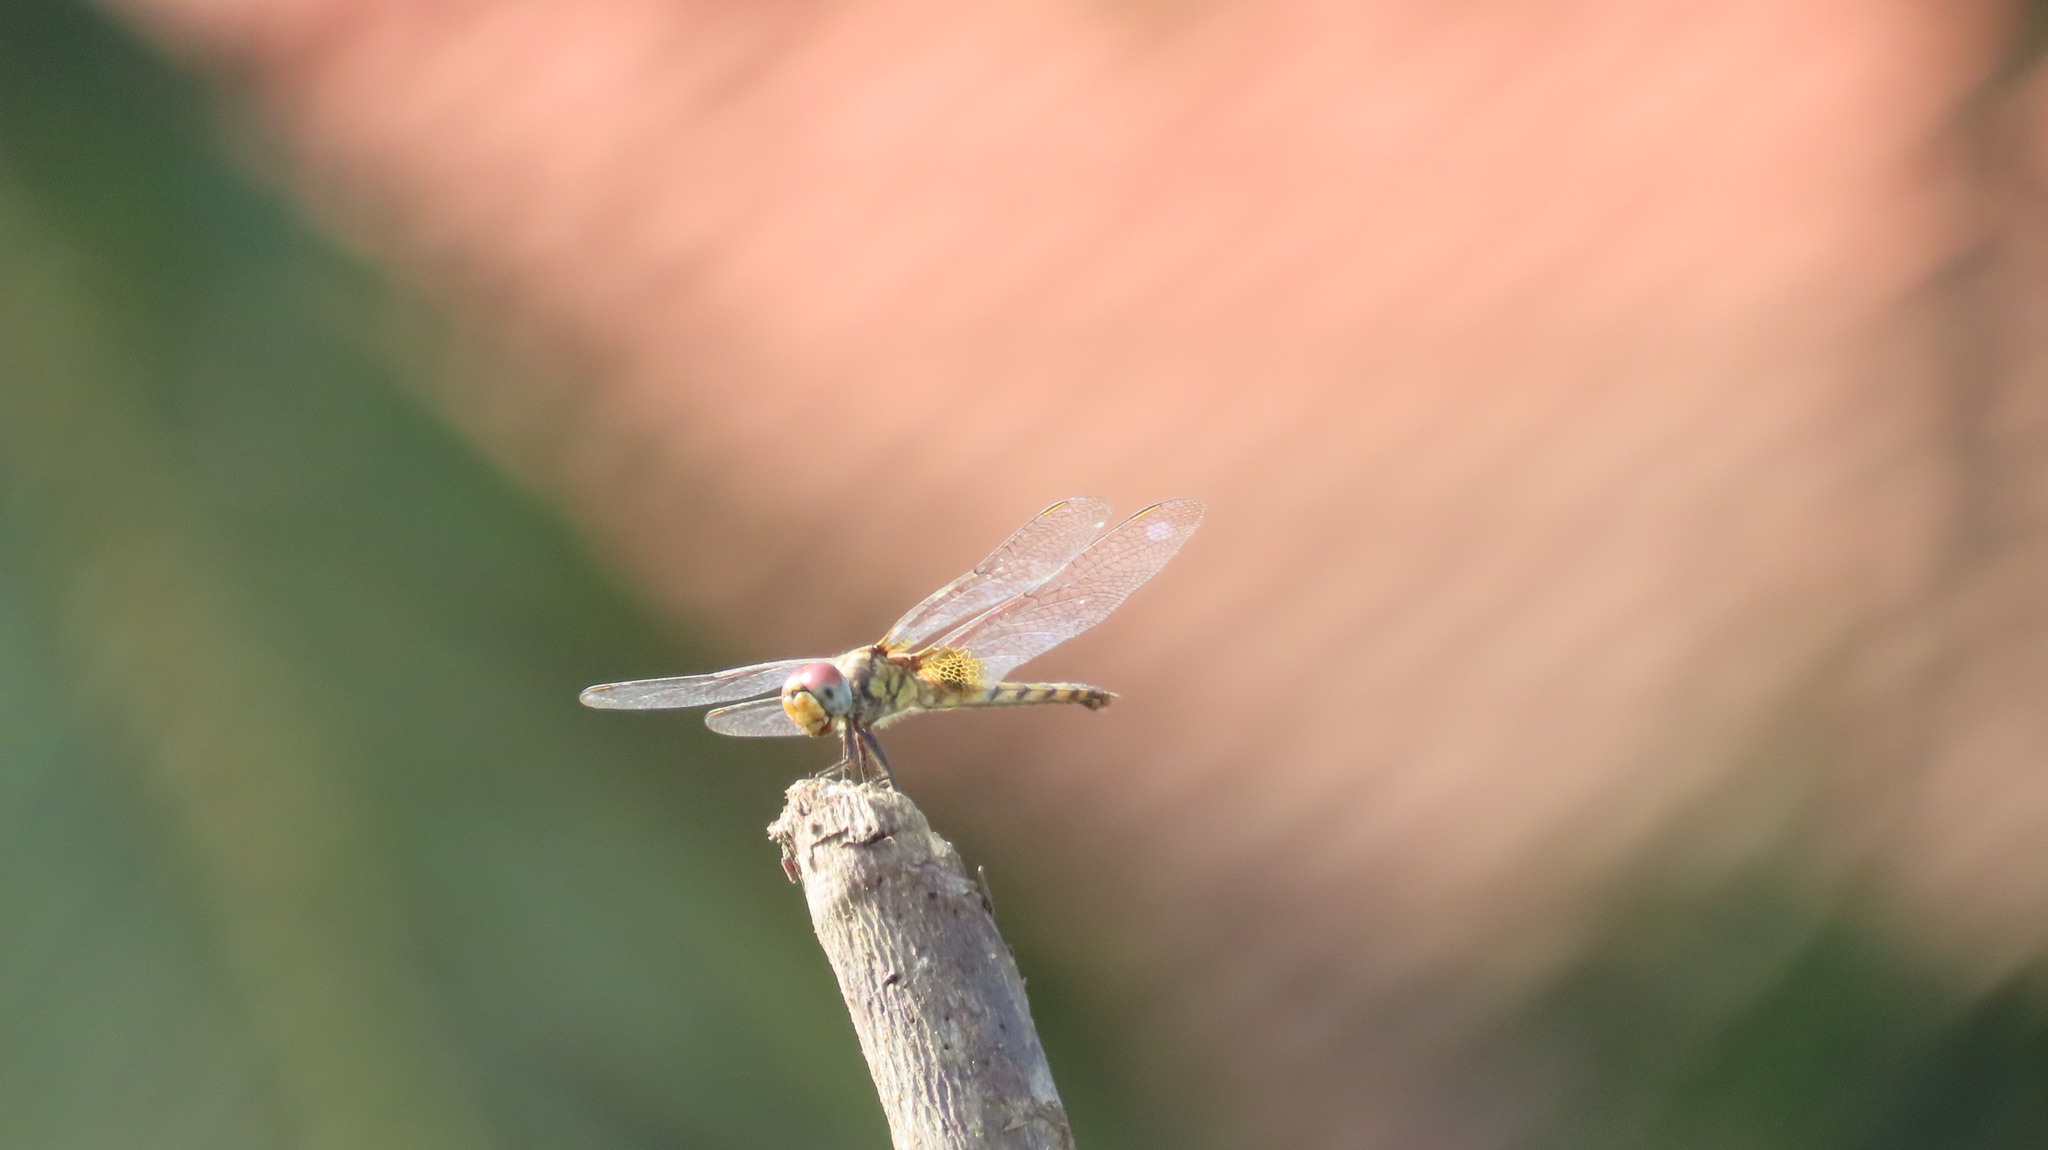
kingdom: Animalia
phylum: Arthropoda
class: Insecta
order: Odonata
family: Libellulidae
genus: Urothemis
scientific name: Urothemis signata
